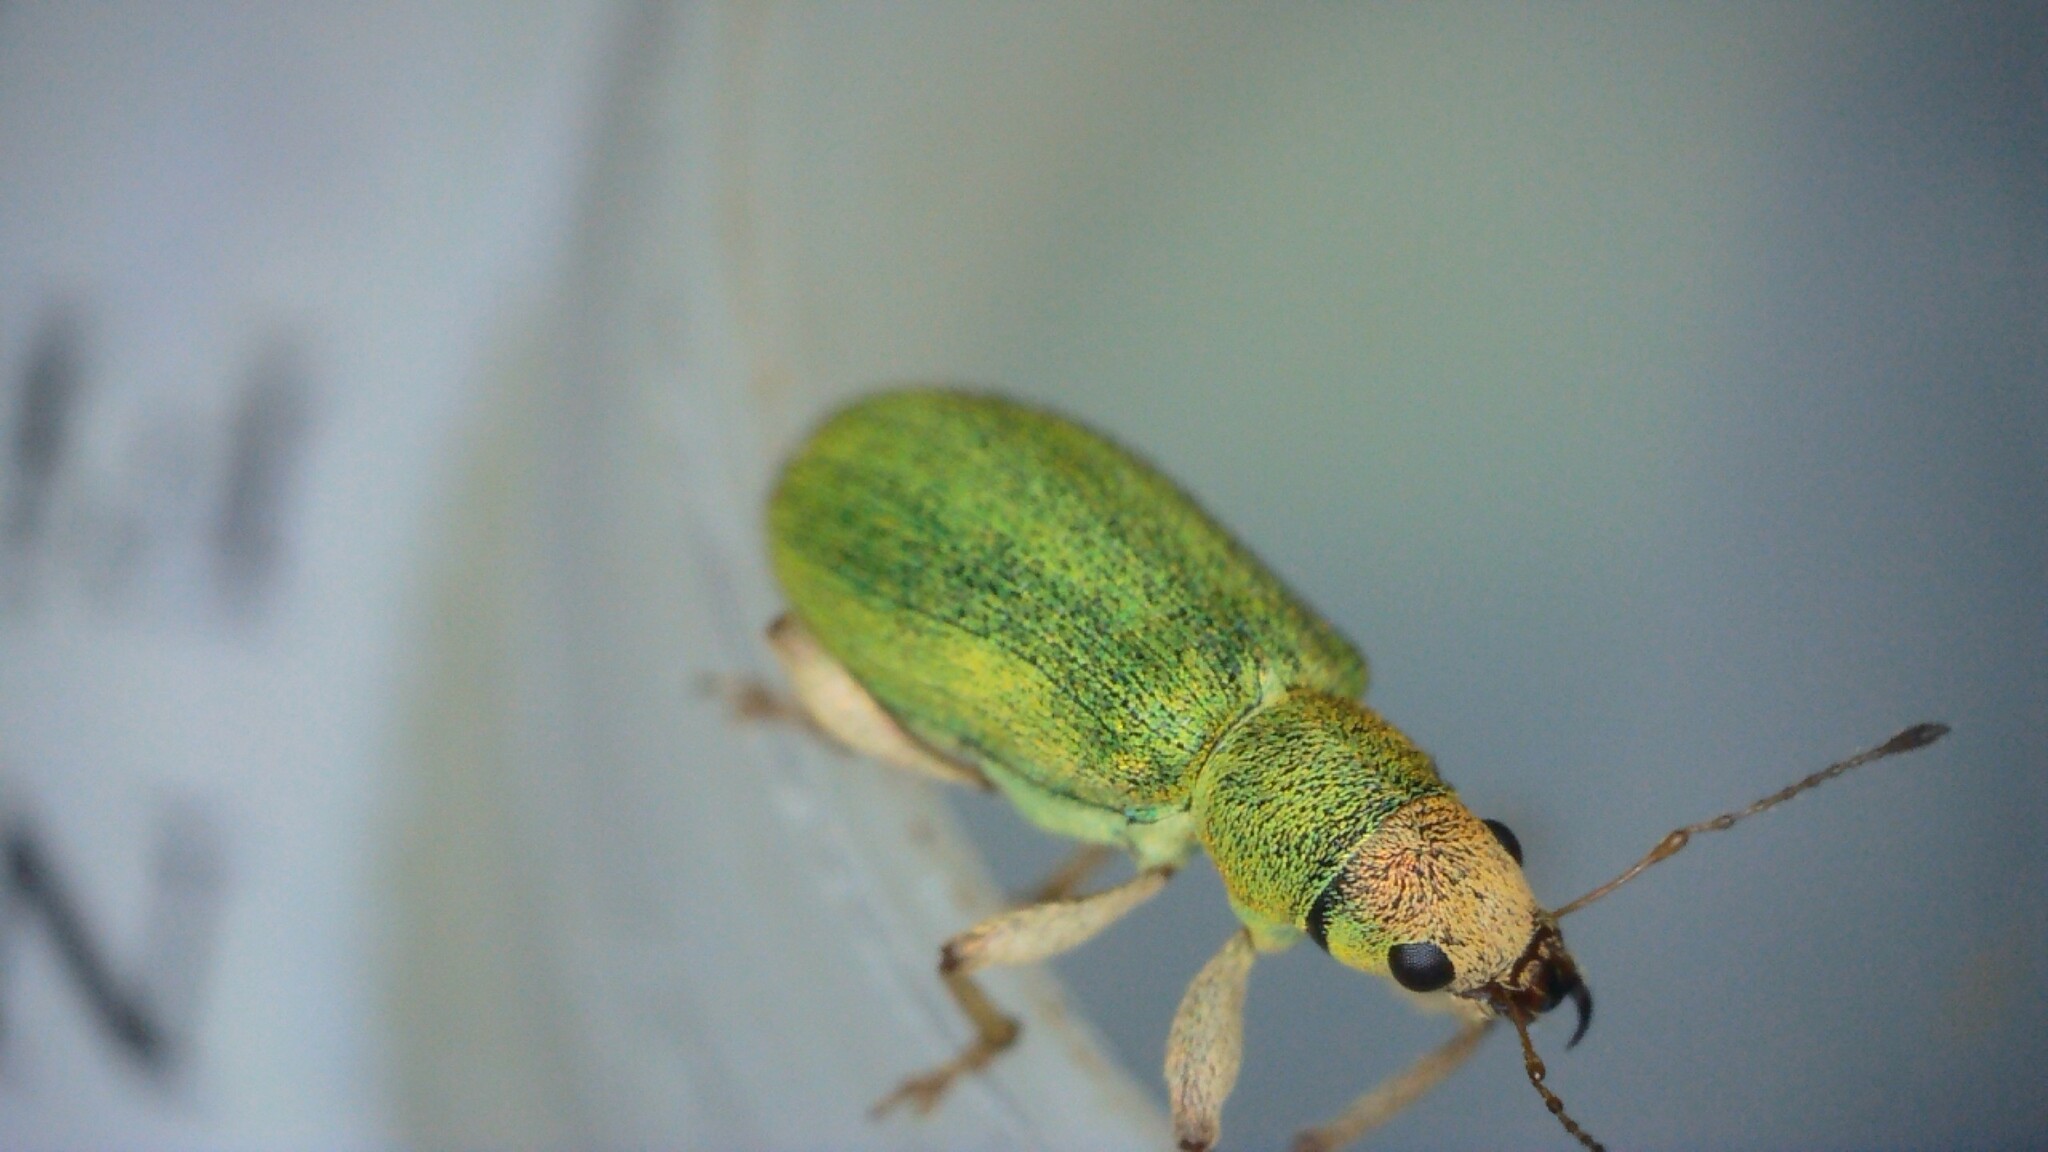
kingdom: Animalia
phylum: Arthropoda
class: Insecta
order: Coleoptera
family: Curculionidae
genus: Pachyrhinus
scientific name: Pachyrhinus lethierryi
